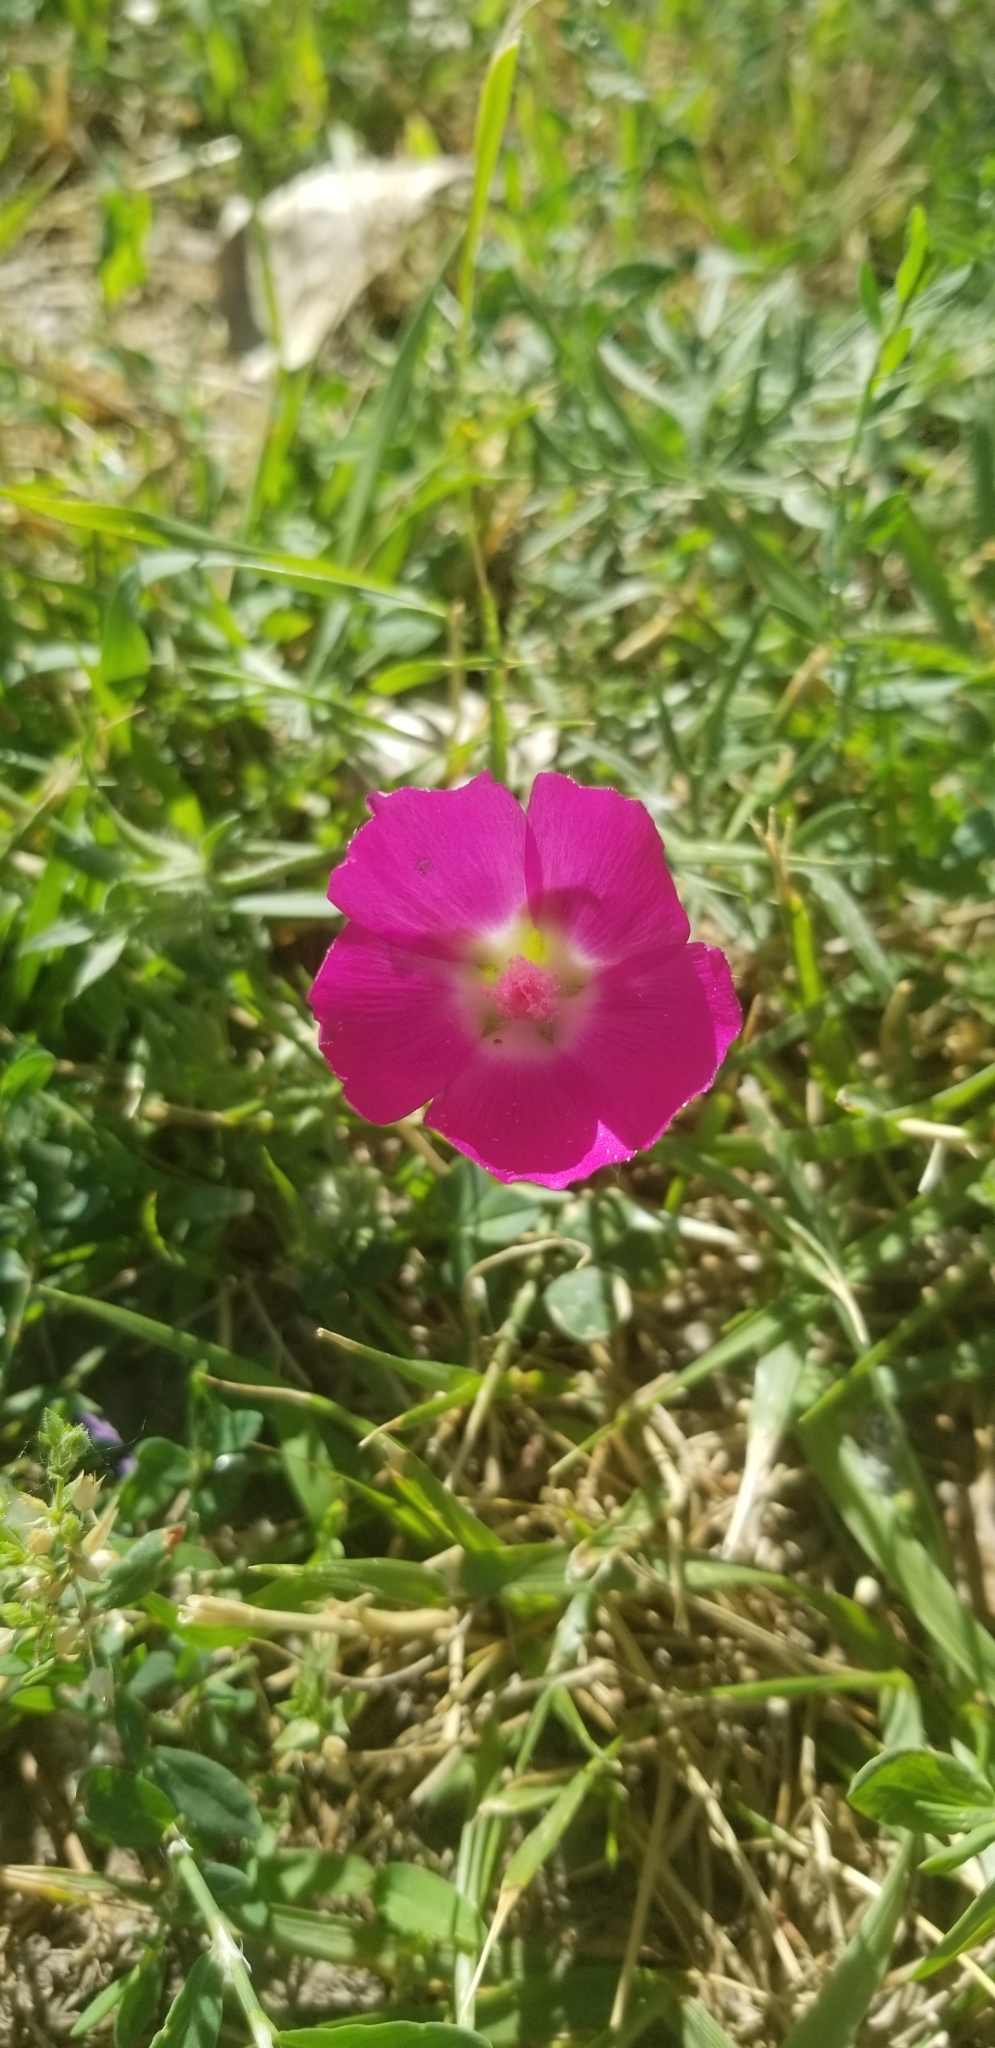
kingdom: Plantae
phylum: Tracheophyta
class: Magnoliopsida
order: Malvales
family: Malvaceae
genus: Callirhoe
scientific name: Callirhoe involucrata
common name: Purple poppy-mallow
